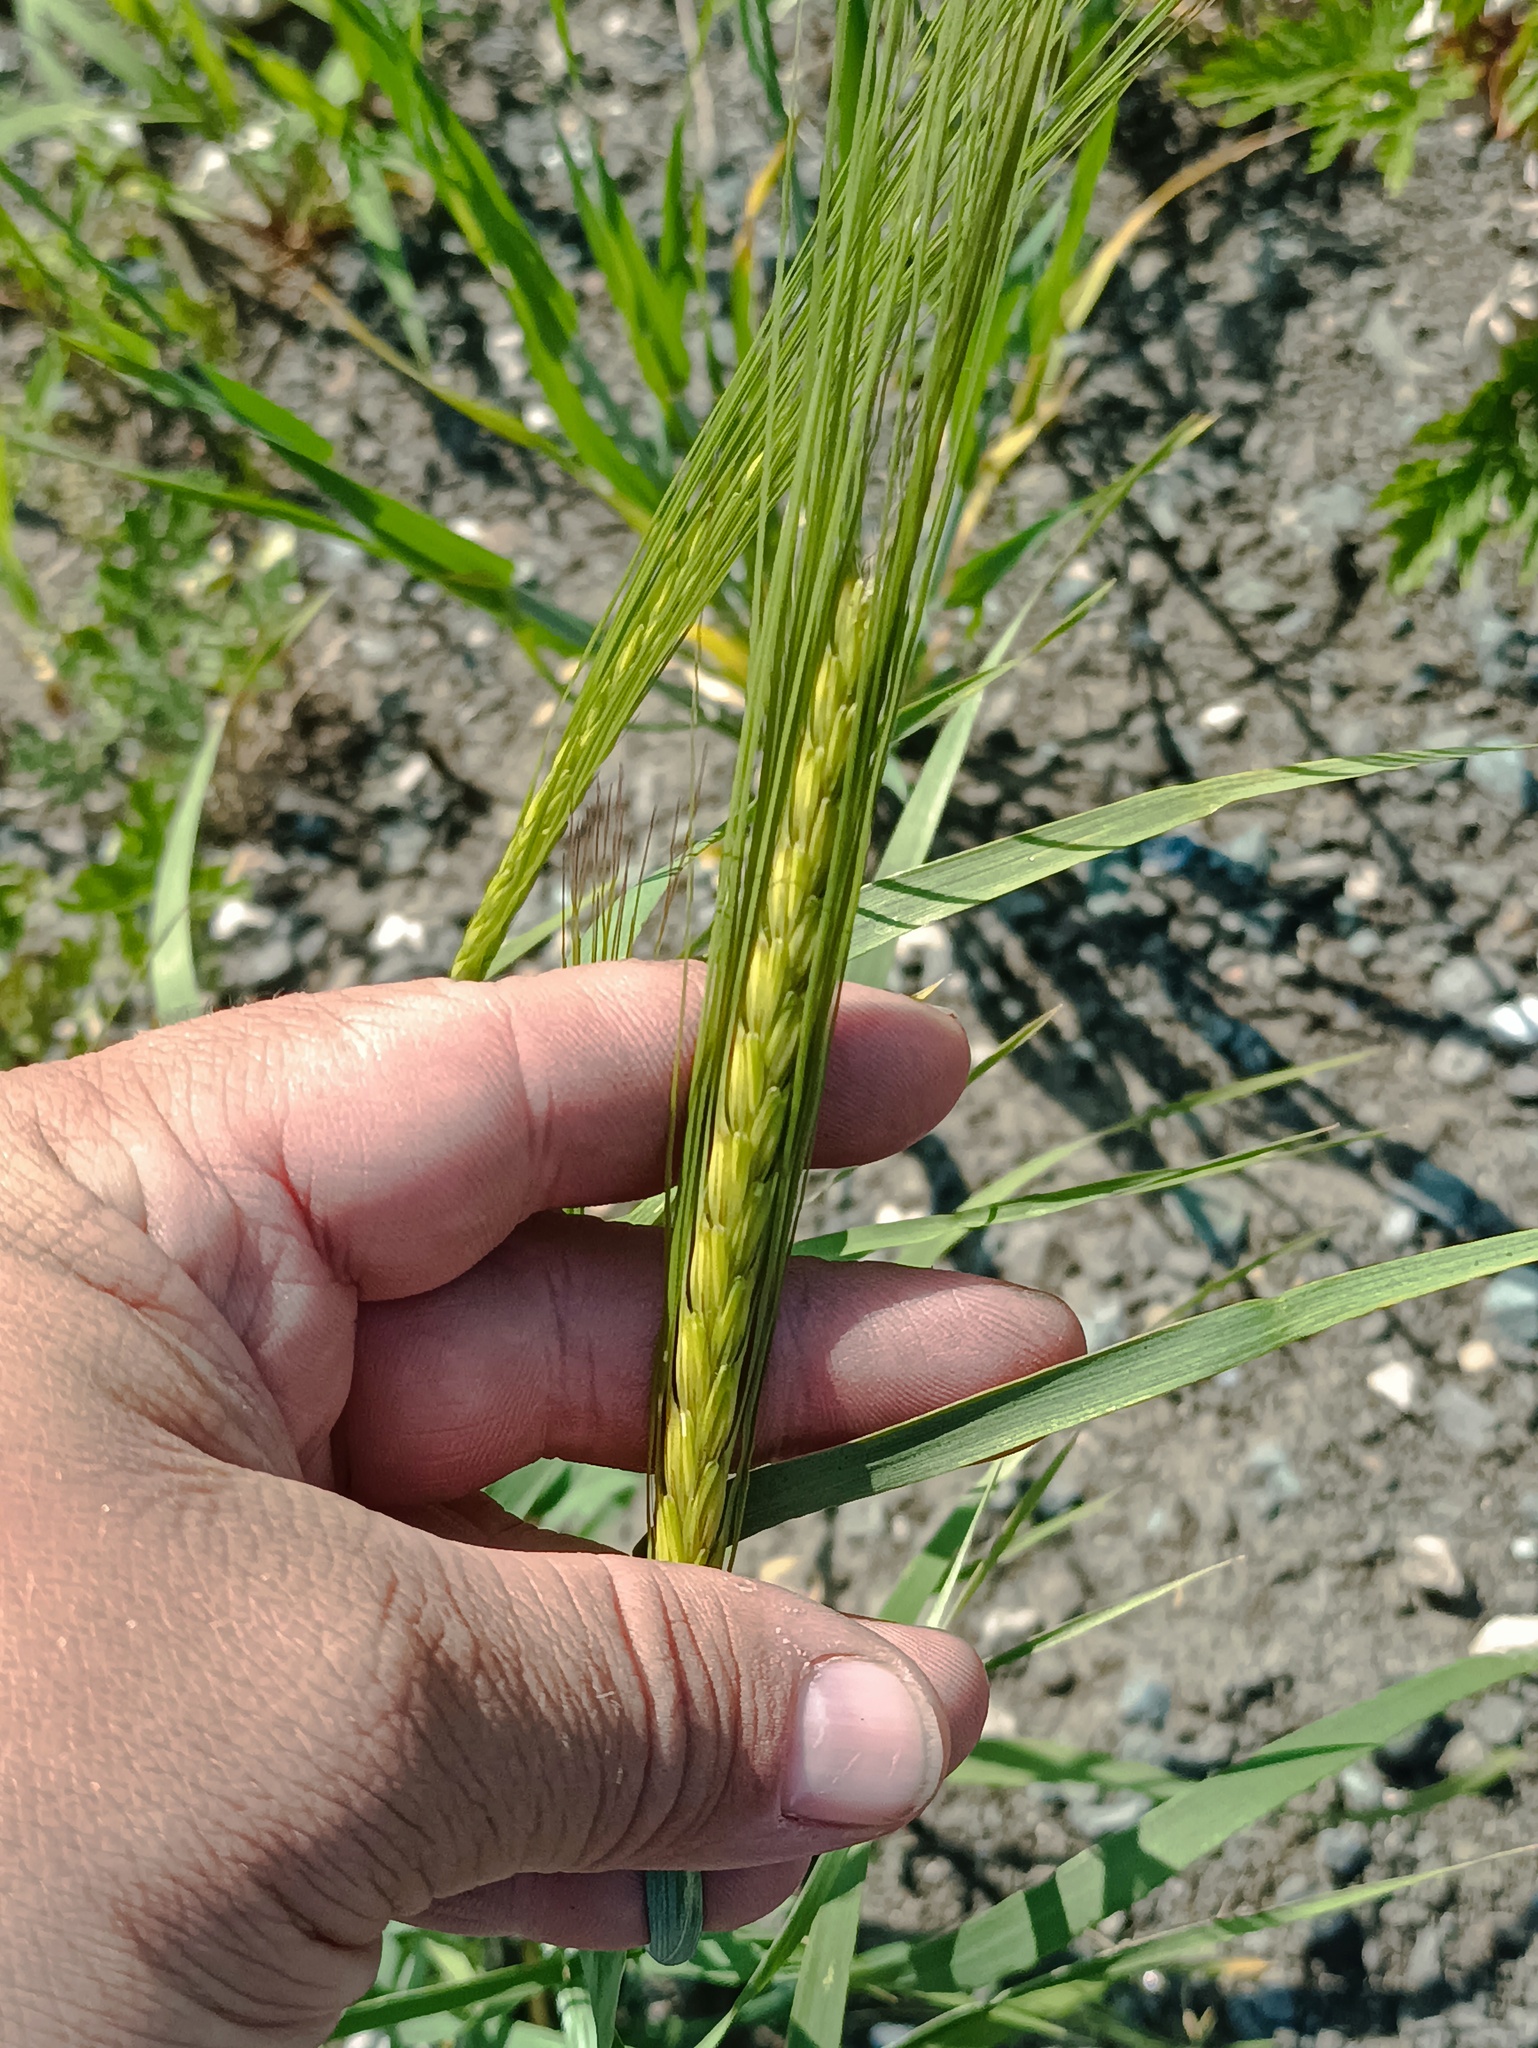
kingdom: Plantae
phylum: Tracheophyta
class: Liliopsida
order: Poales
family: Poaceae
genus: Hordeum
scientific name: Hordeum vulgare
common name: Common barley
